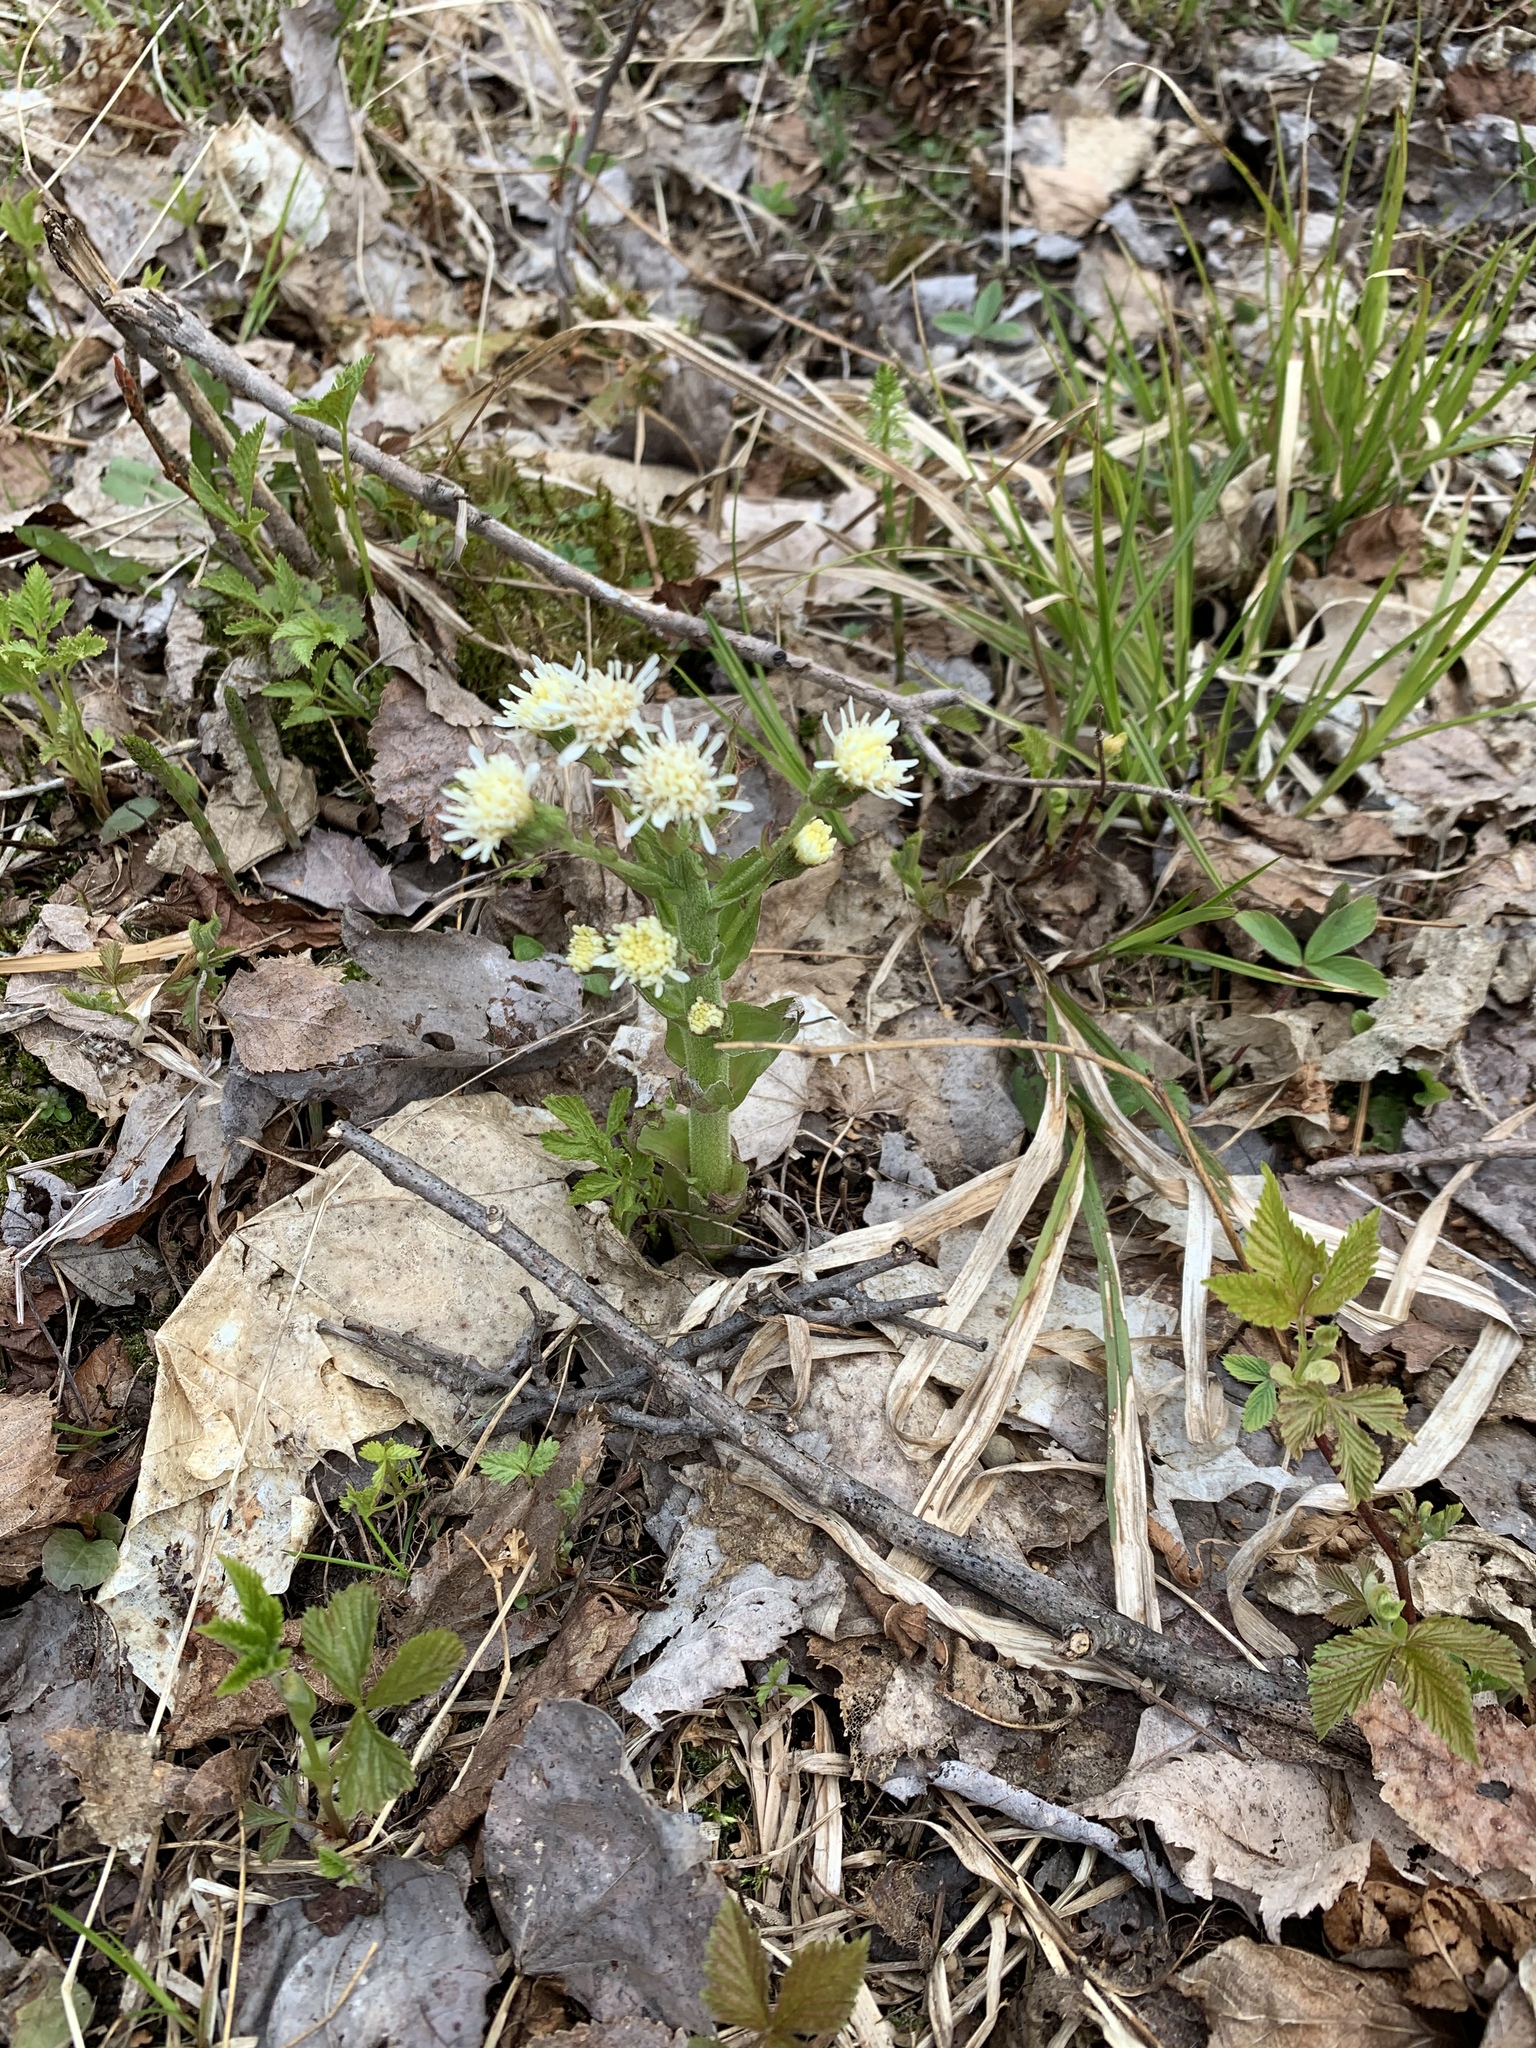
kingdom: Plantae
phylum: Tracheophyta
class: Magnoliopsida
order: Asterales
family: Asteraceae
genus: Petasites
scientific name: Petasites frigidus
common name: Arctic butterbur
